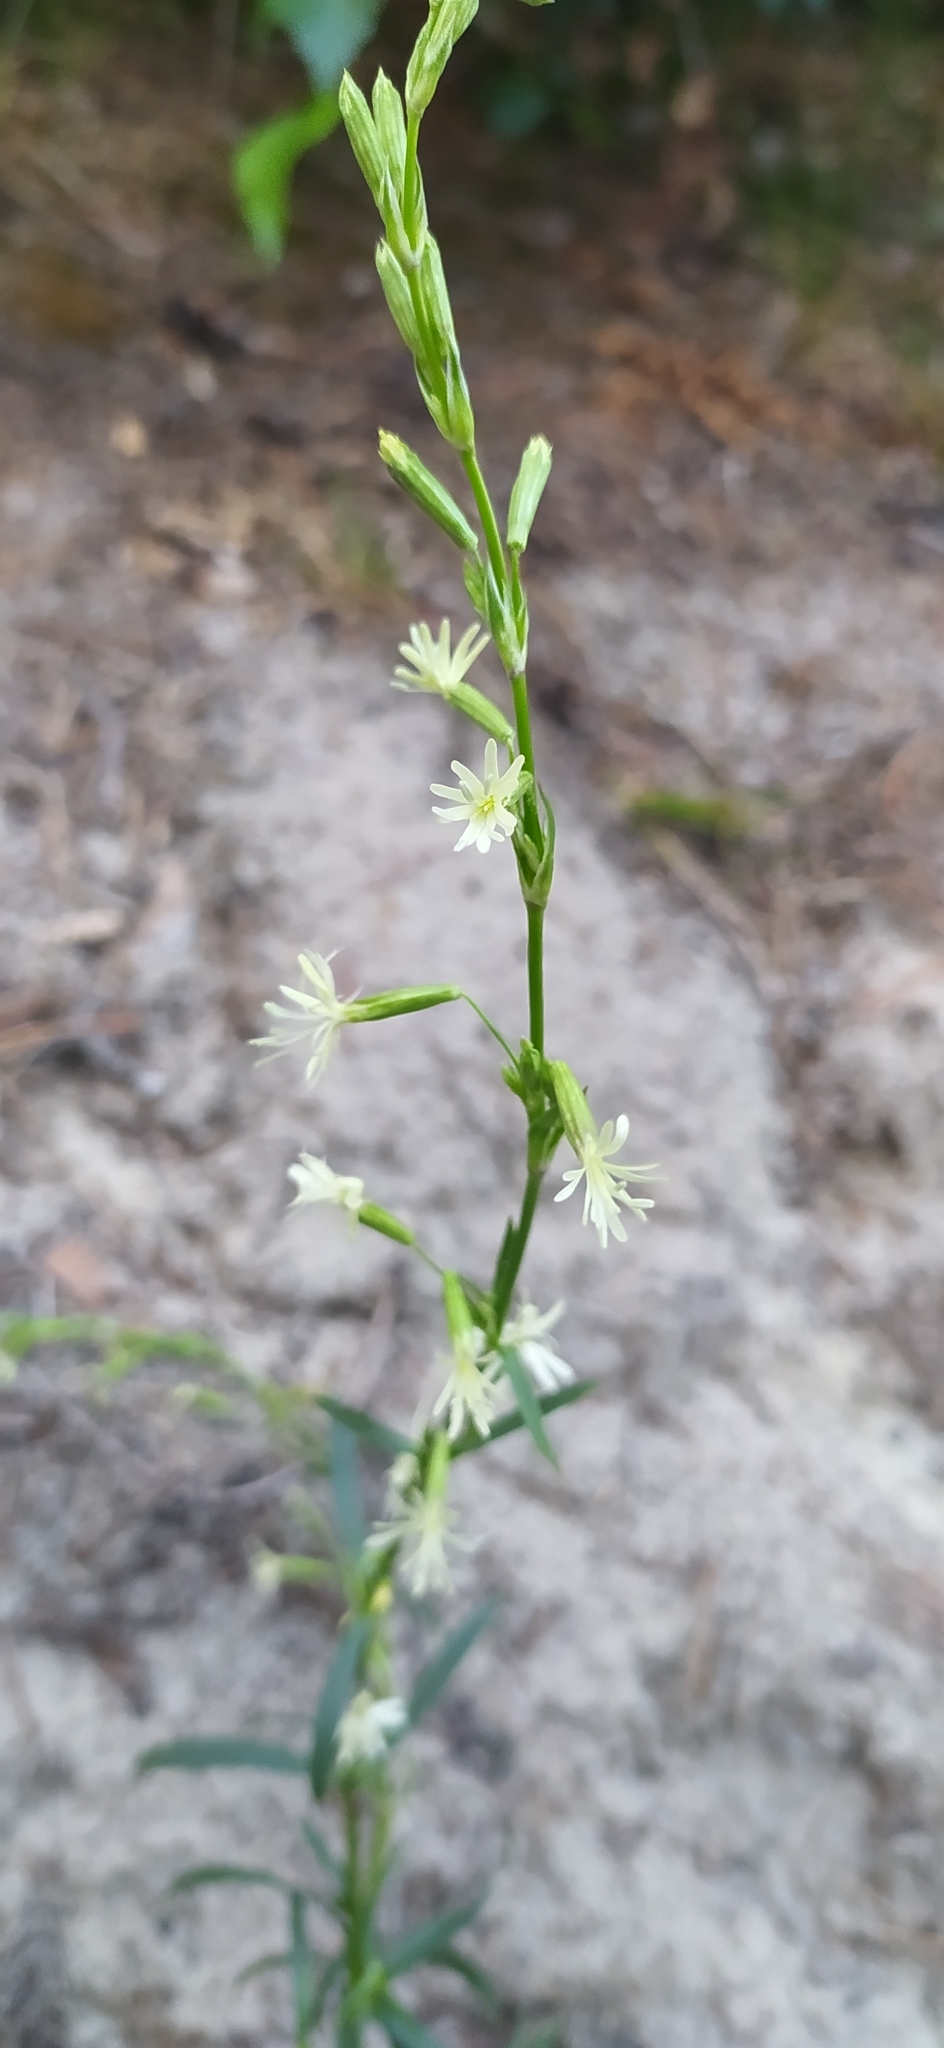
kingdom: Plantae
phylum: Tracheophyta
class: Magnoliopsida
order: Caryophyllales
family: Caryophyllaceae
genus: Silene
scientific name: Silene tatarica
